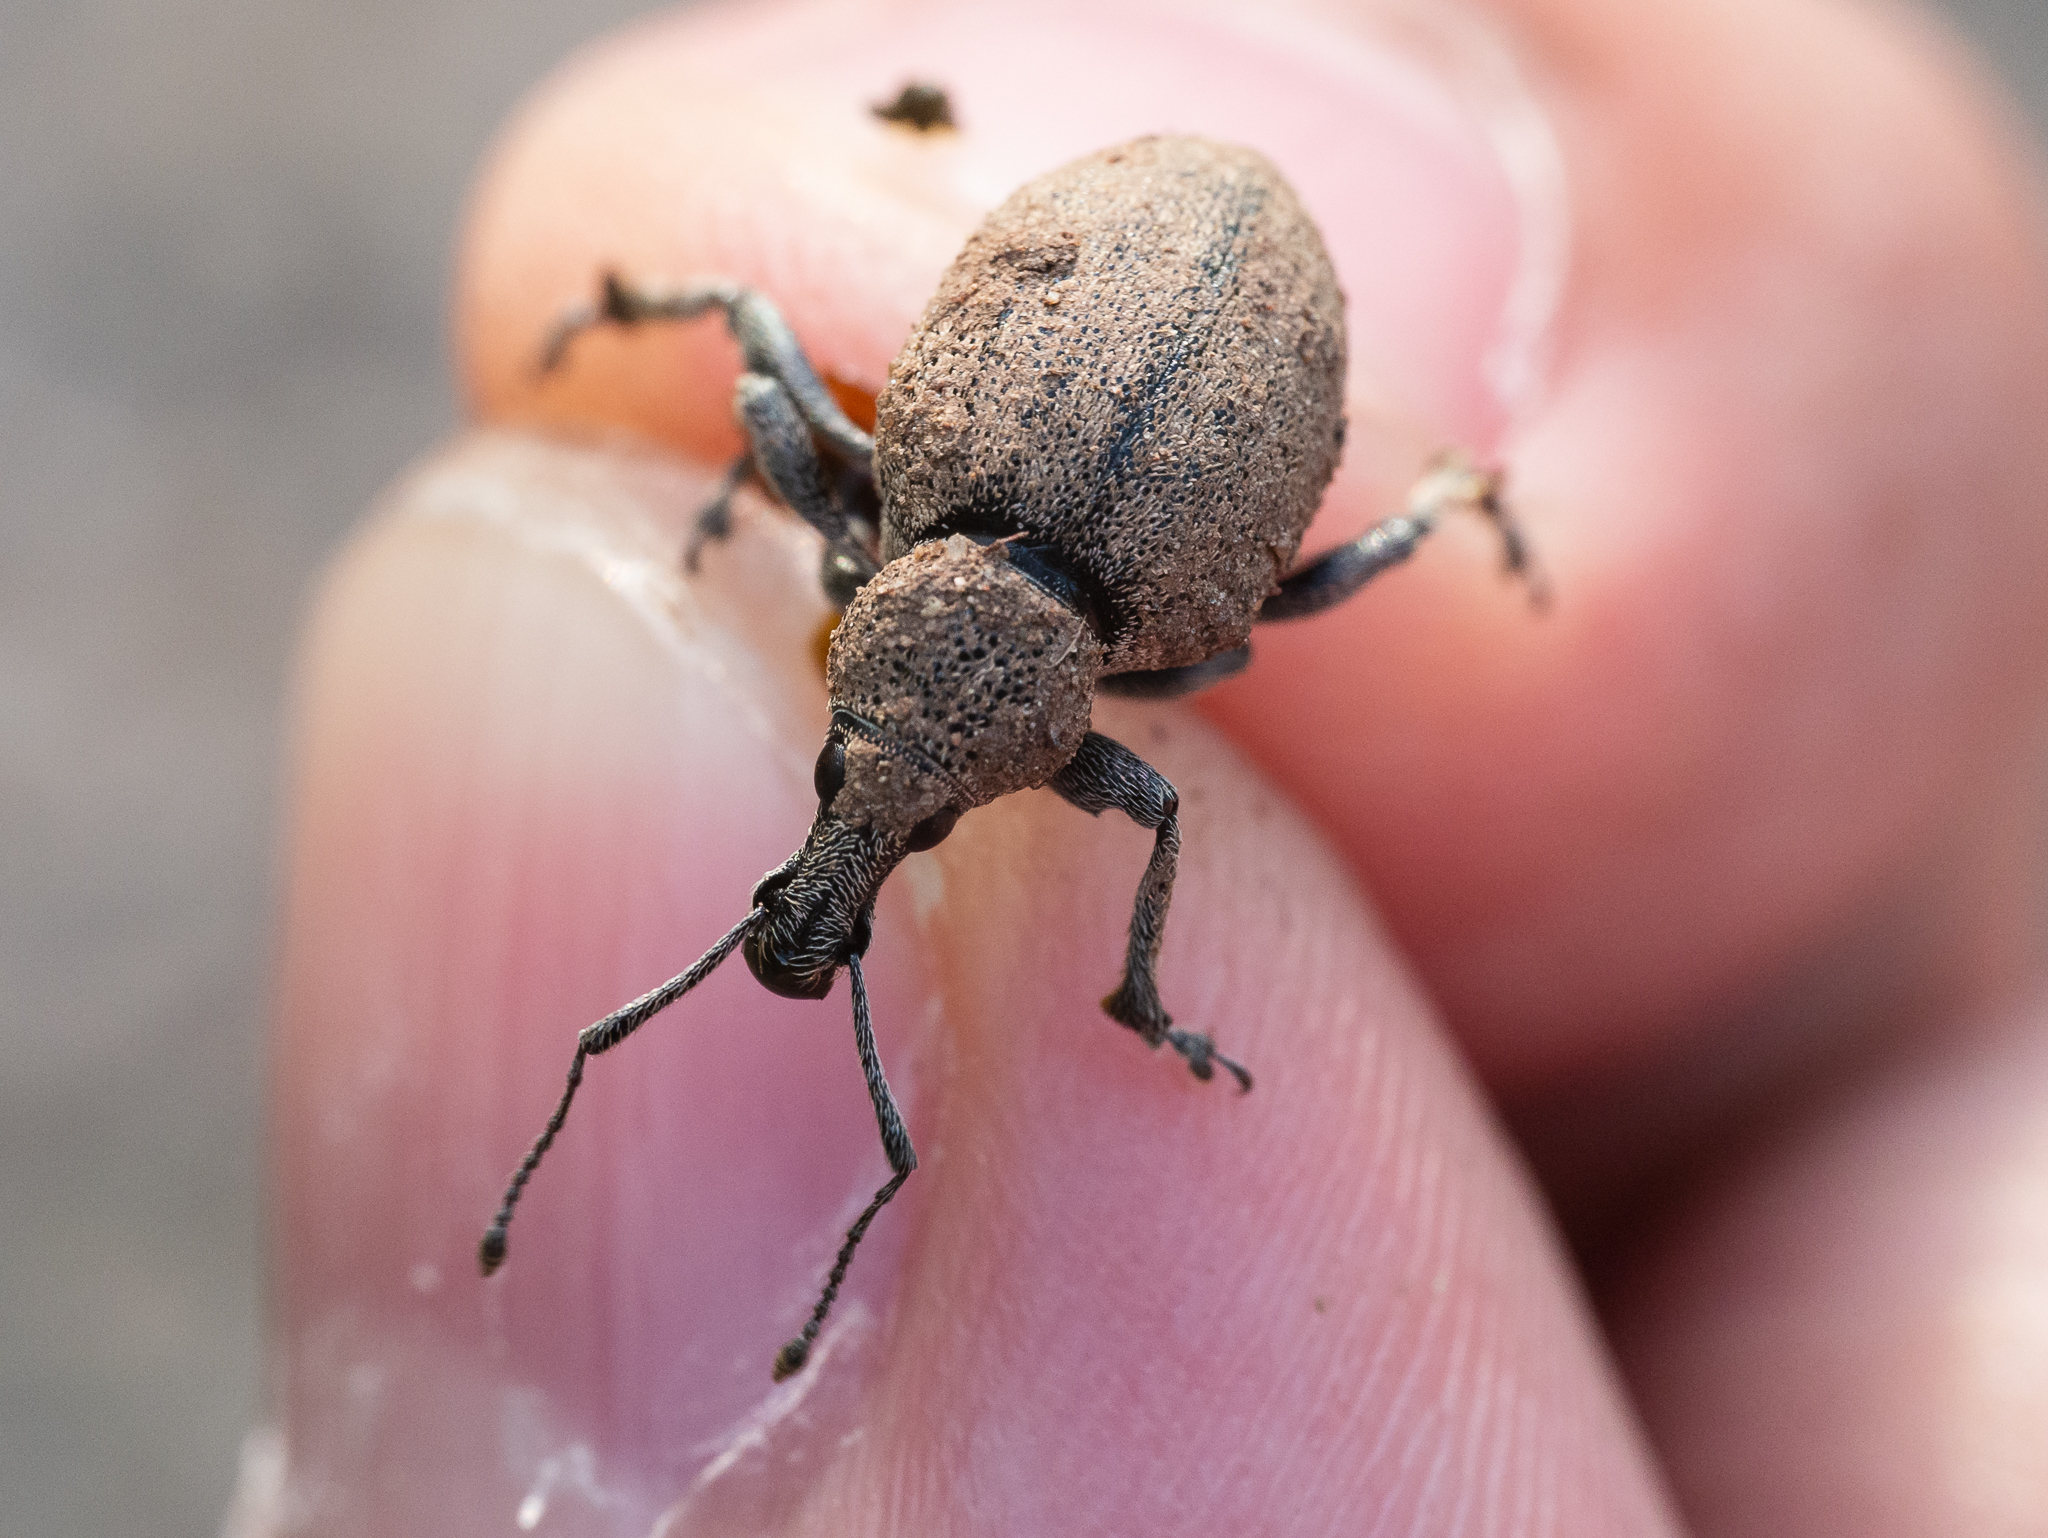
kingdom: Animalia
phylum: Arthropoda
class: Insecta
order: Coleoptera
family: Curculionidae
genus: Otiorhynchus
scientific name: Otiorhynchus ligustici
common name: Weevil
